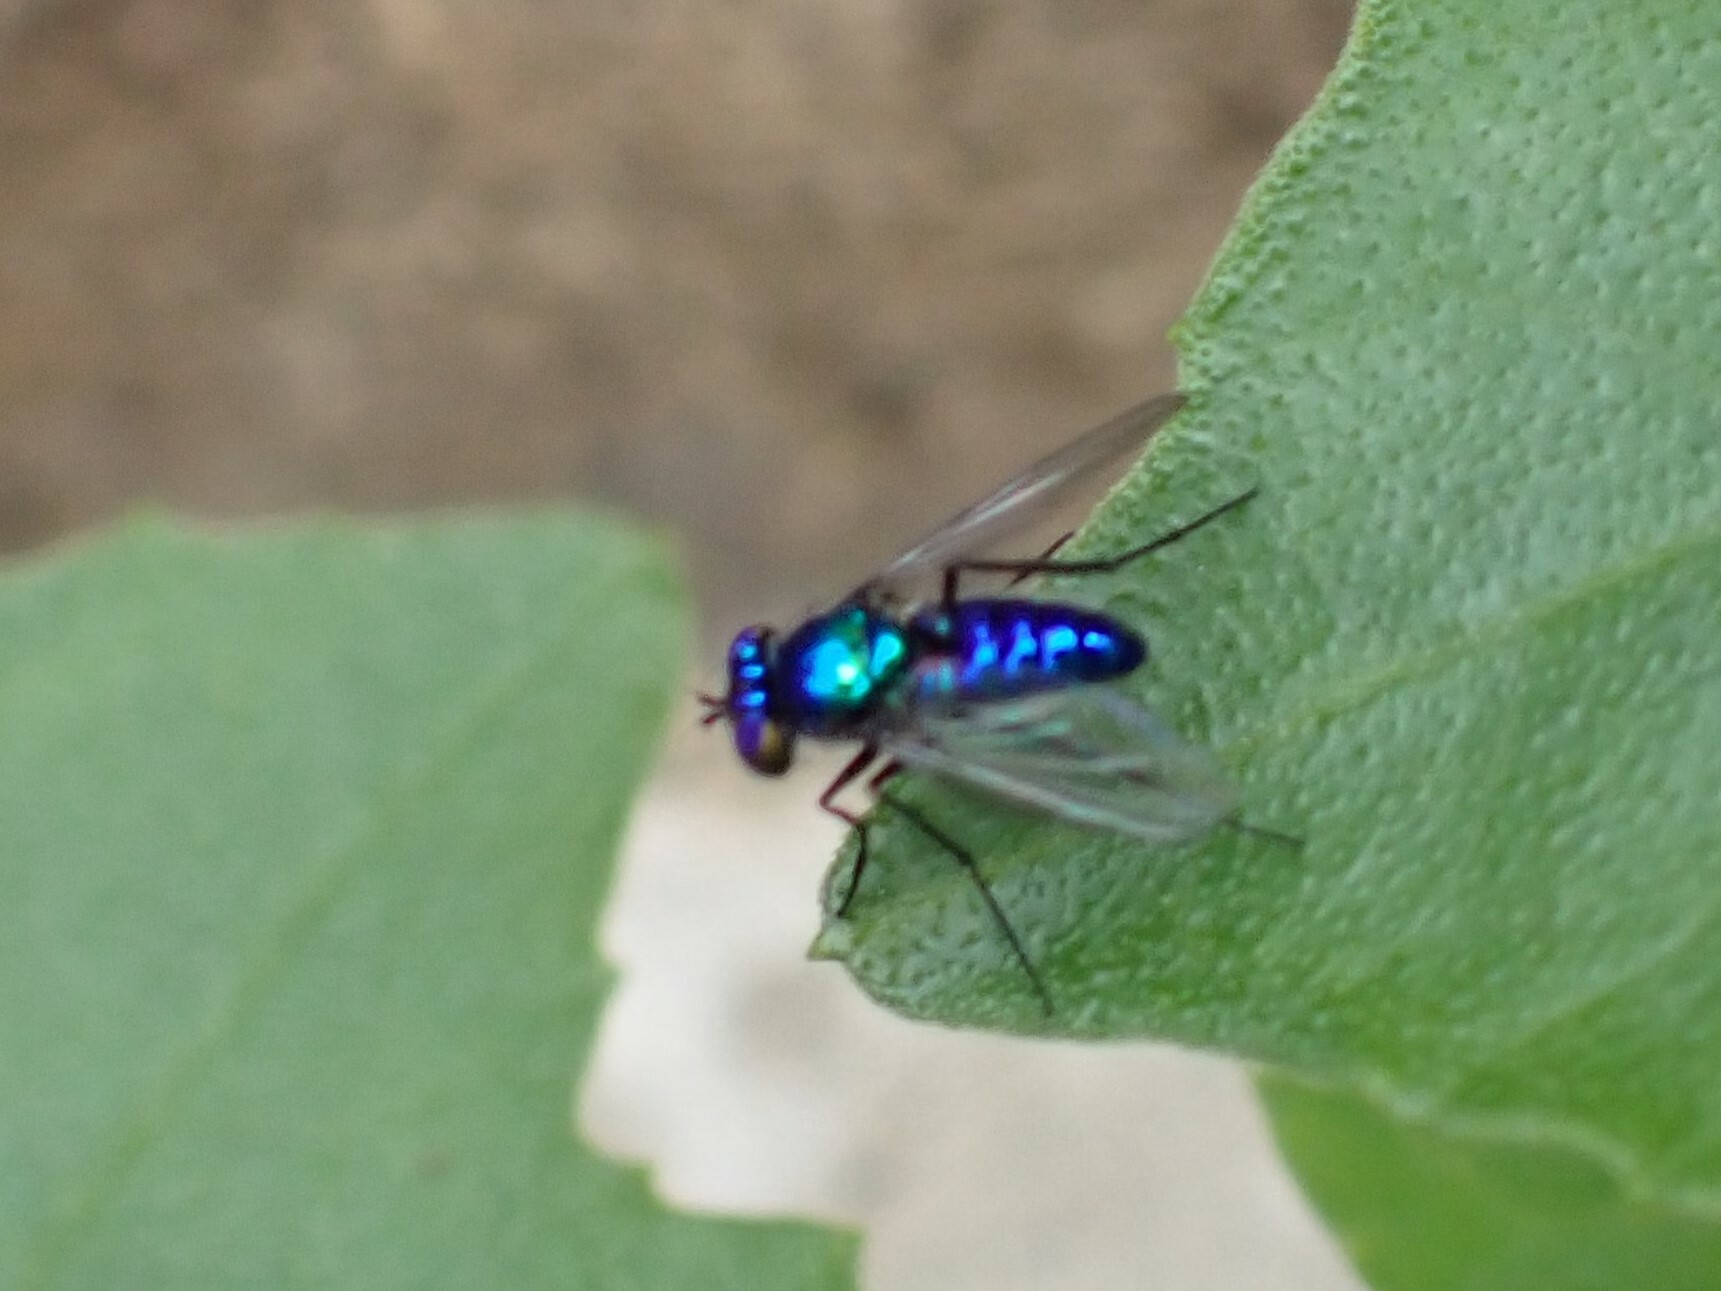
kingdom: Animalia
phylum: Arthropoda
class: Insecta
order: Diptera
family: Dolichopodidae
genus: Condylostylus
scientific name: Condylostylus mundus
